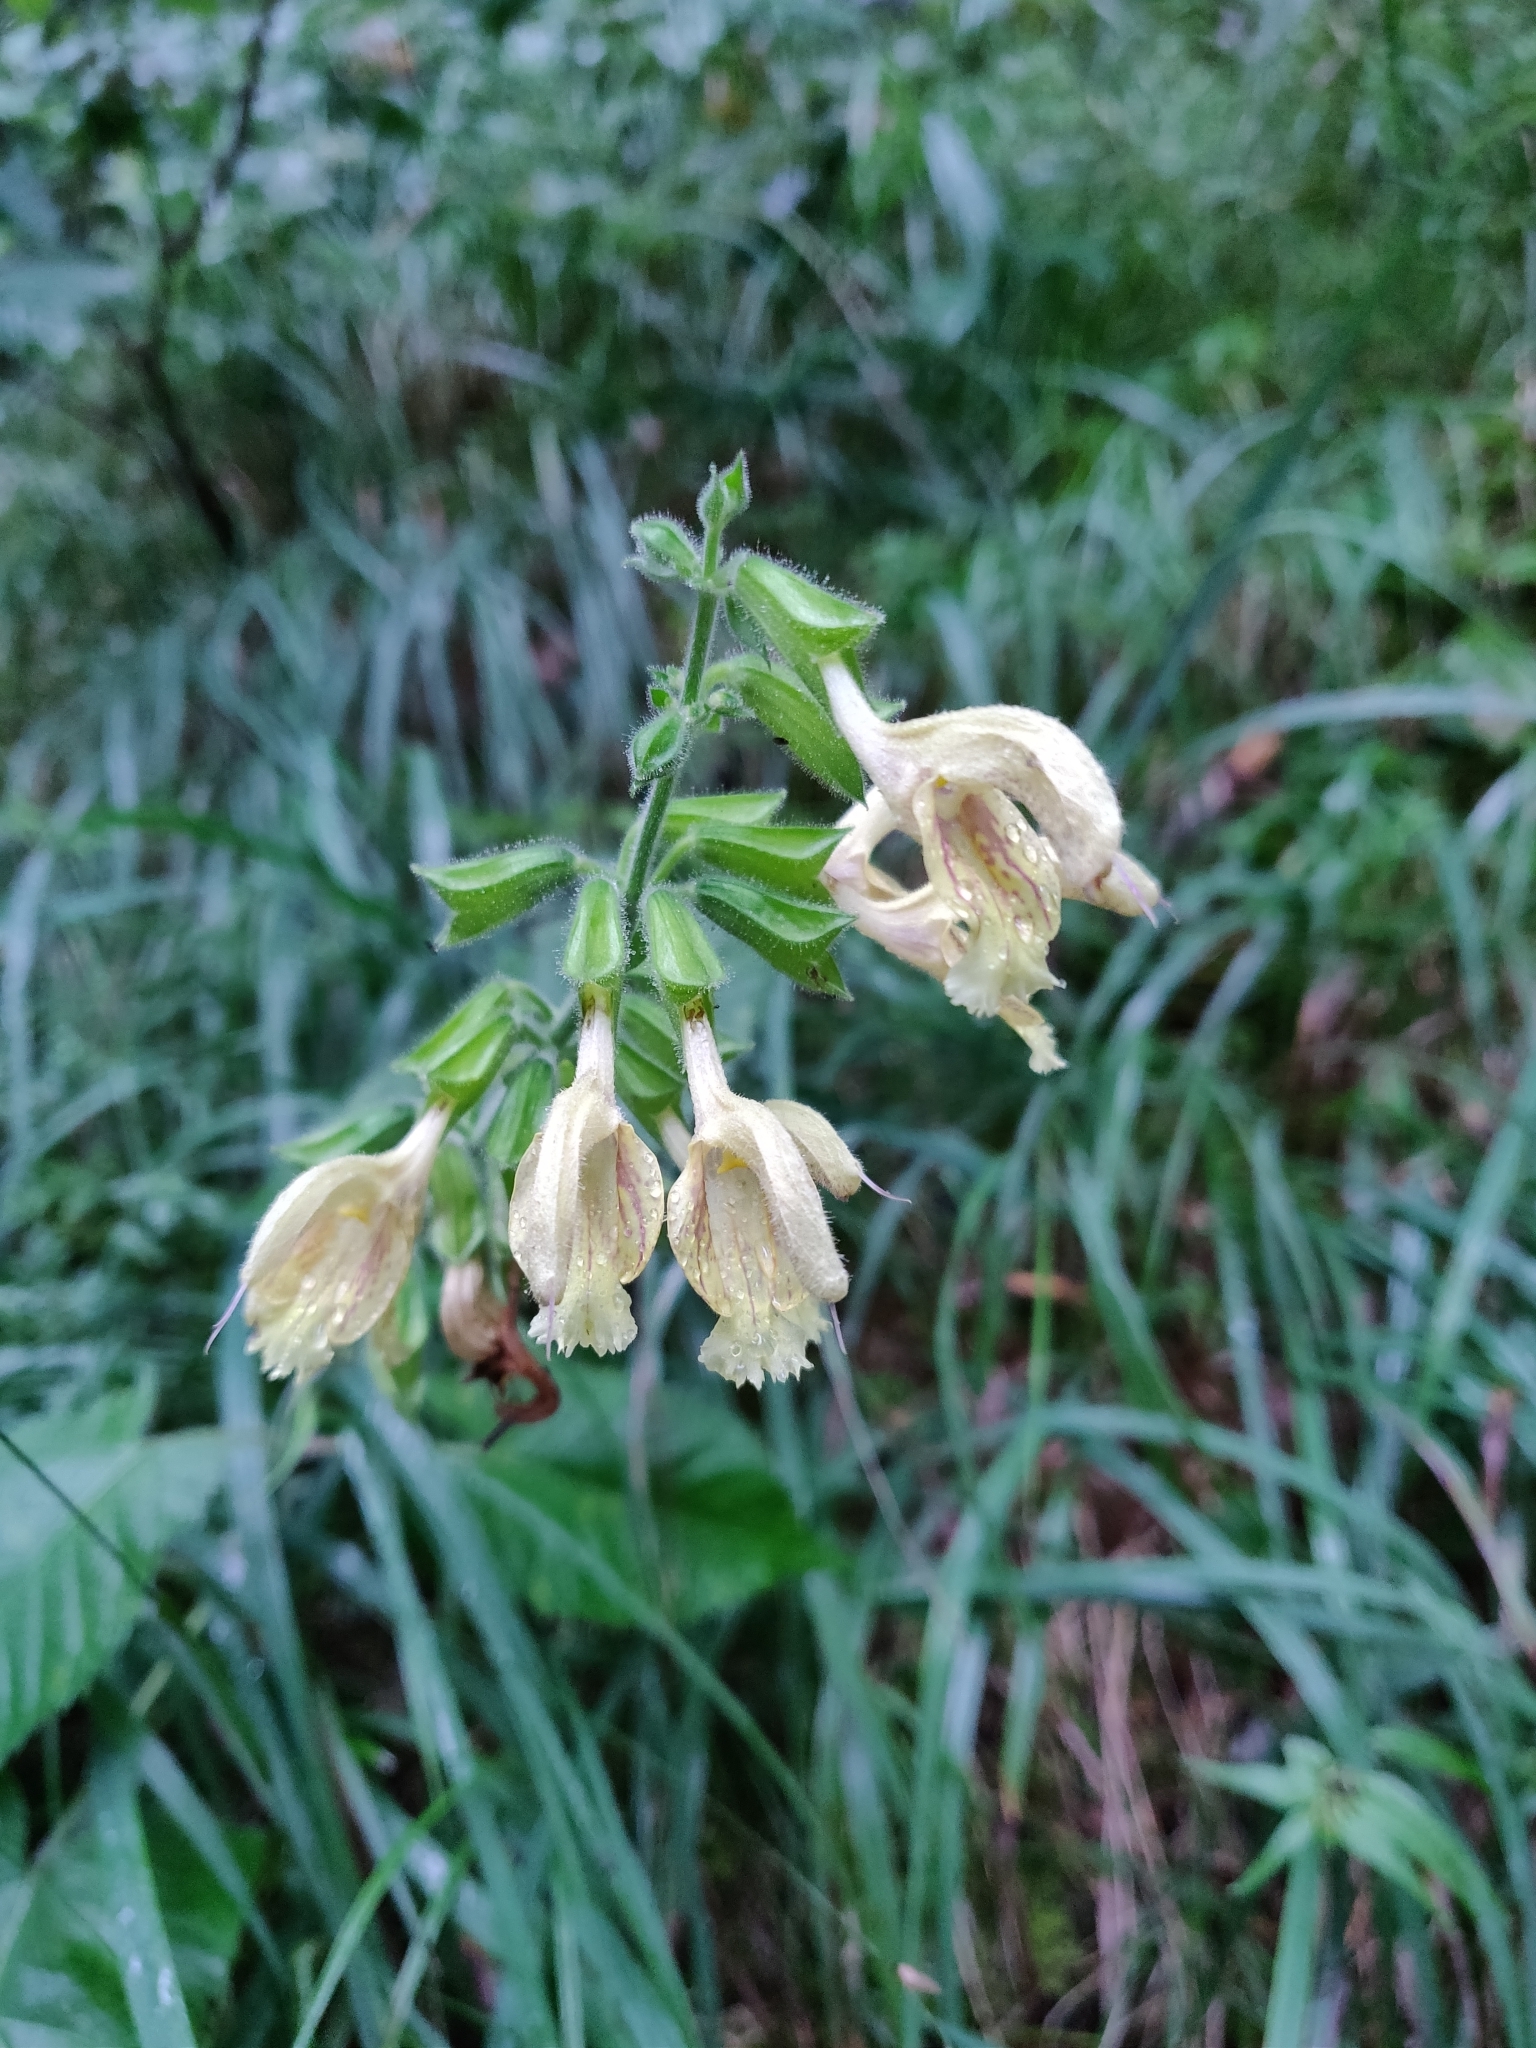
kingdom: Plantae
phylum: Tracheophyta
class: Magnoliopsida
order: Lamiales
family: Lamiaceae
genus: Salvia
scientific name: Salvia glutinosa
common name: Sticky clary
